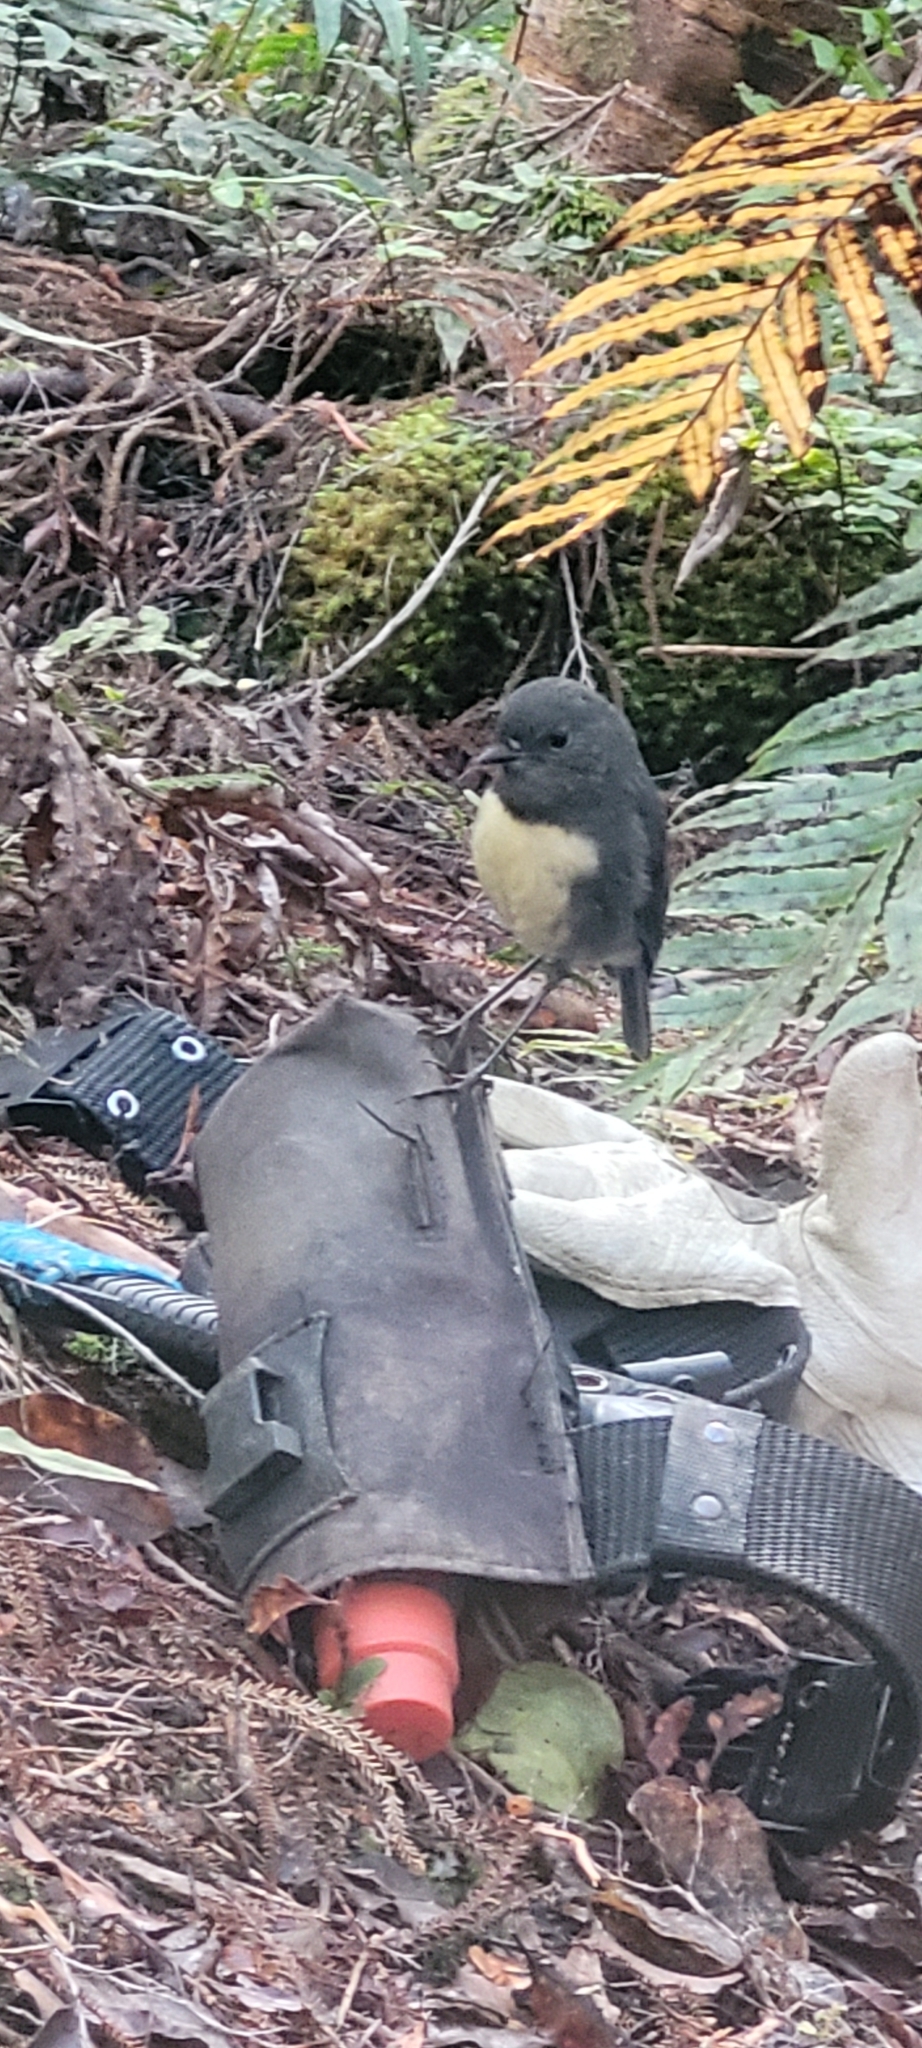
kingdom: Animalia
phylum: Chordata
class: Aves
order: Passeriformes
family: Petroicidae
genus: Petroica
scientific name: Petroica australis
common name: New zealand robin
